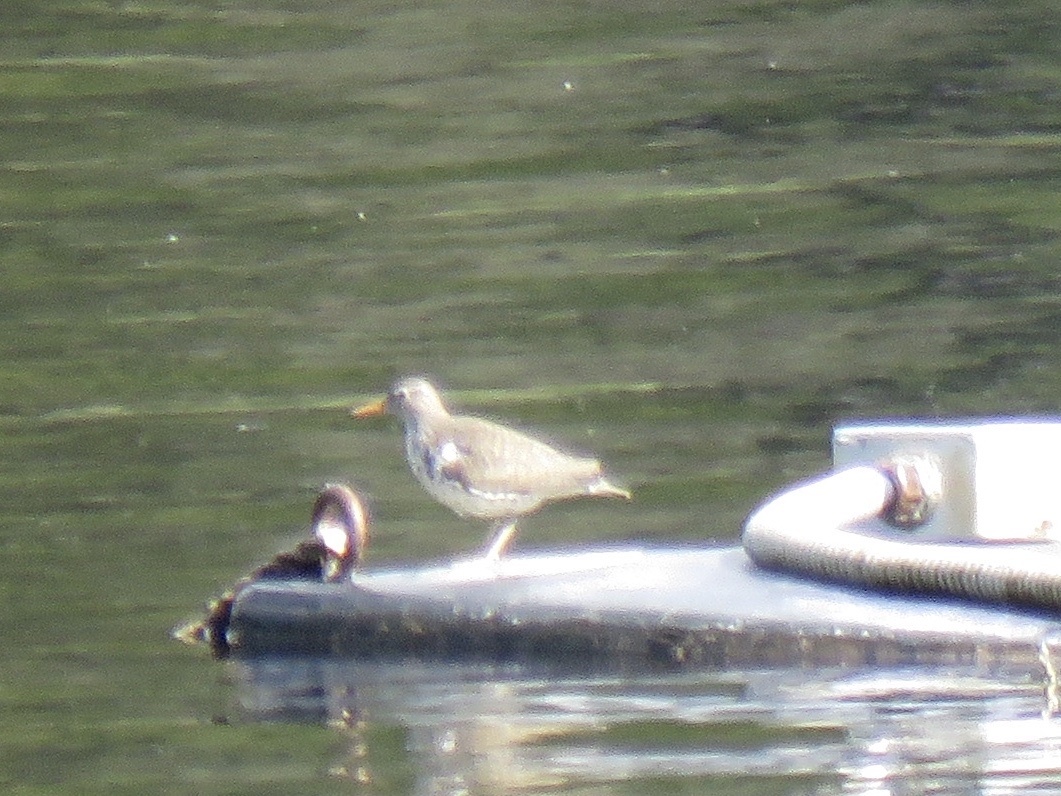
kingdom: Animalia
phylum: Chordata
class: Aves
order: Charadriiformes
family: Scolopacidae
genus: Actitis
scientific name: Actitis macularius
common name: Spotted sandpiper
